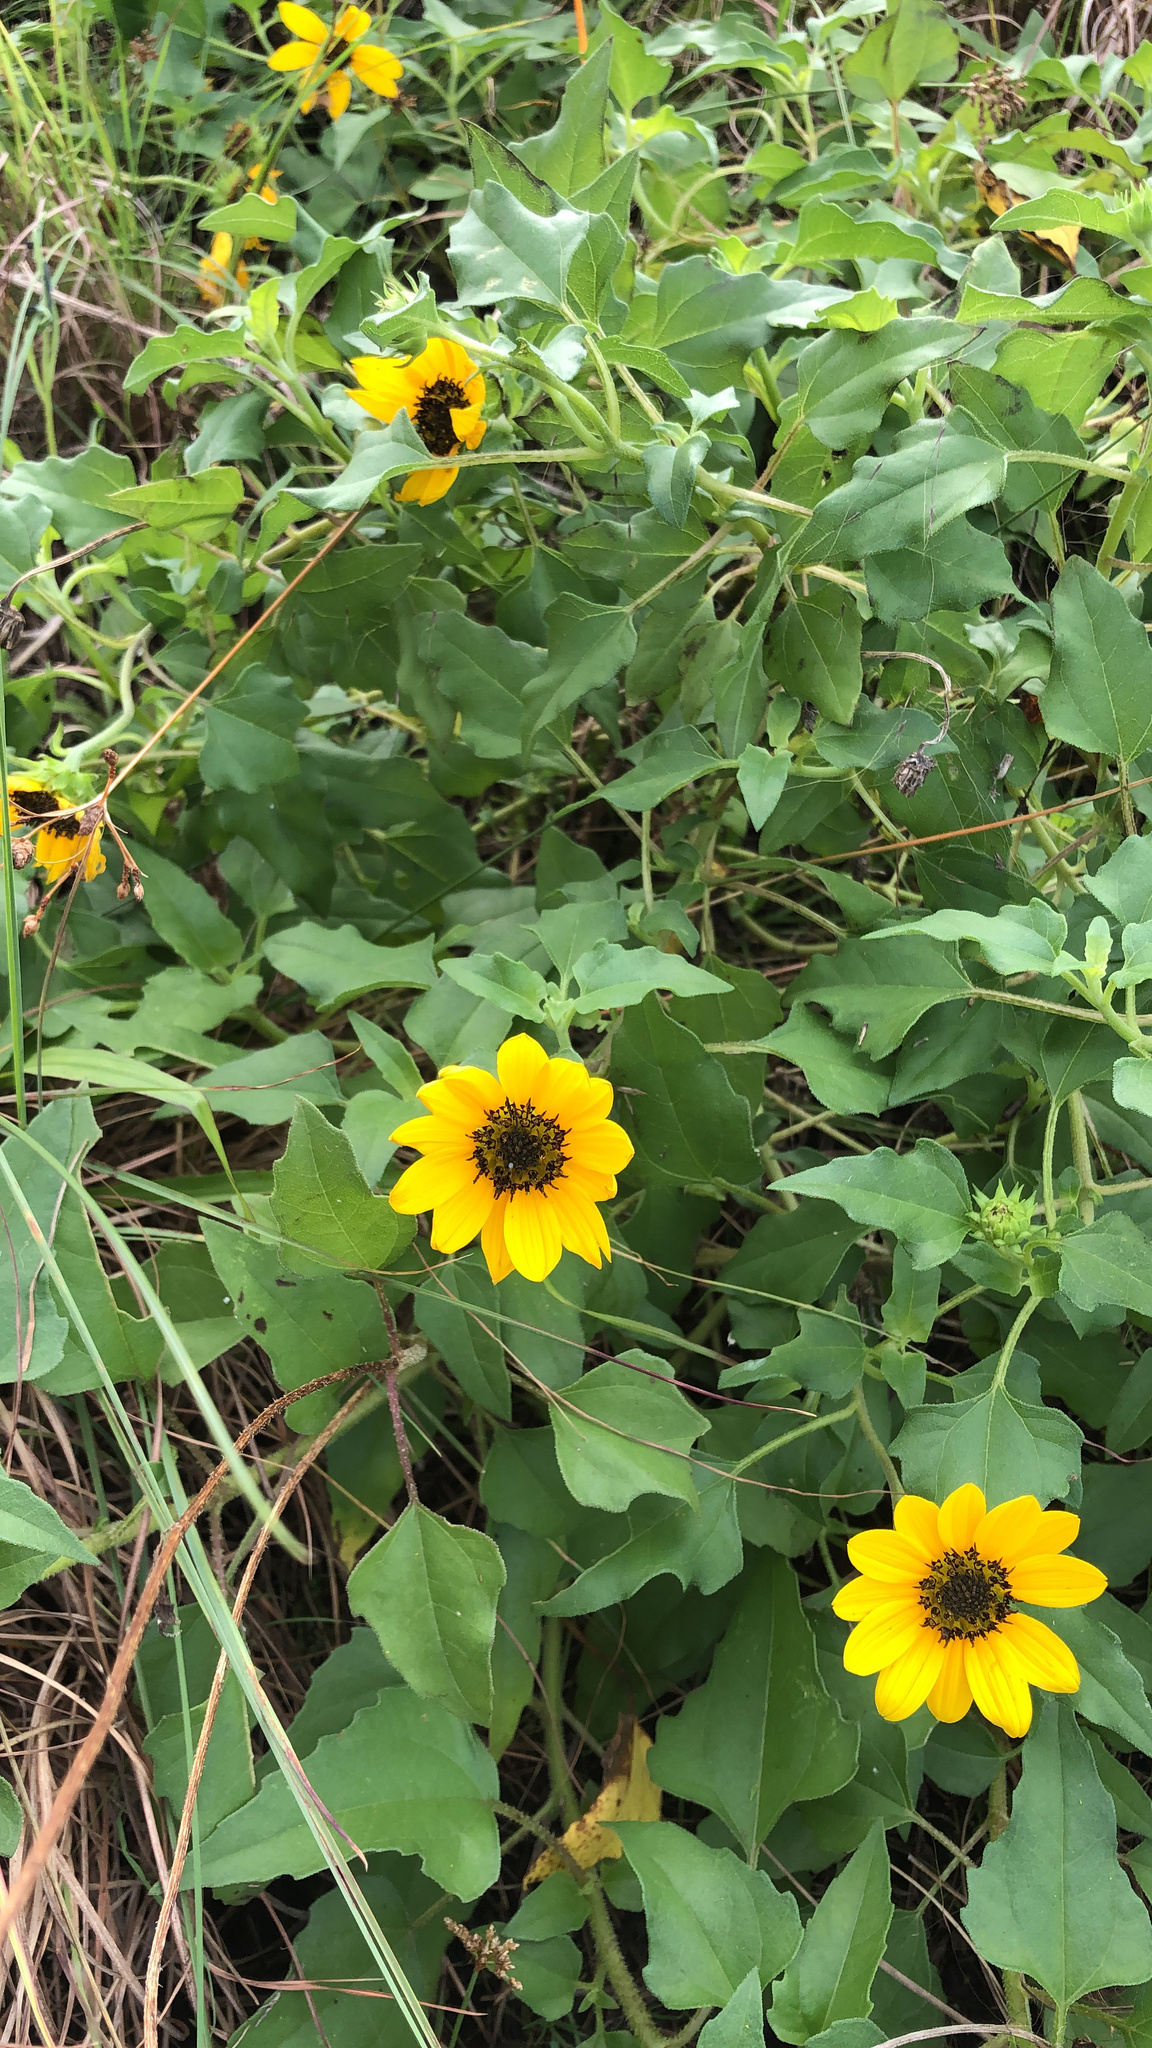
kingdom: Plantae
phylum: Tracheophyta
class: Magnoliopsida
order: Asterales
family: Asteraceae
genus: Helianthus
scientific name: Helianthus debilis
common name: Weak sunflower
